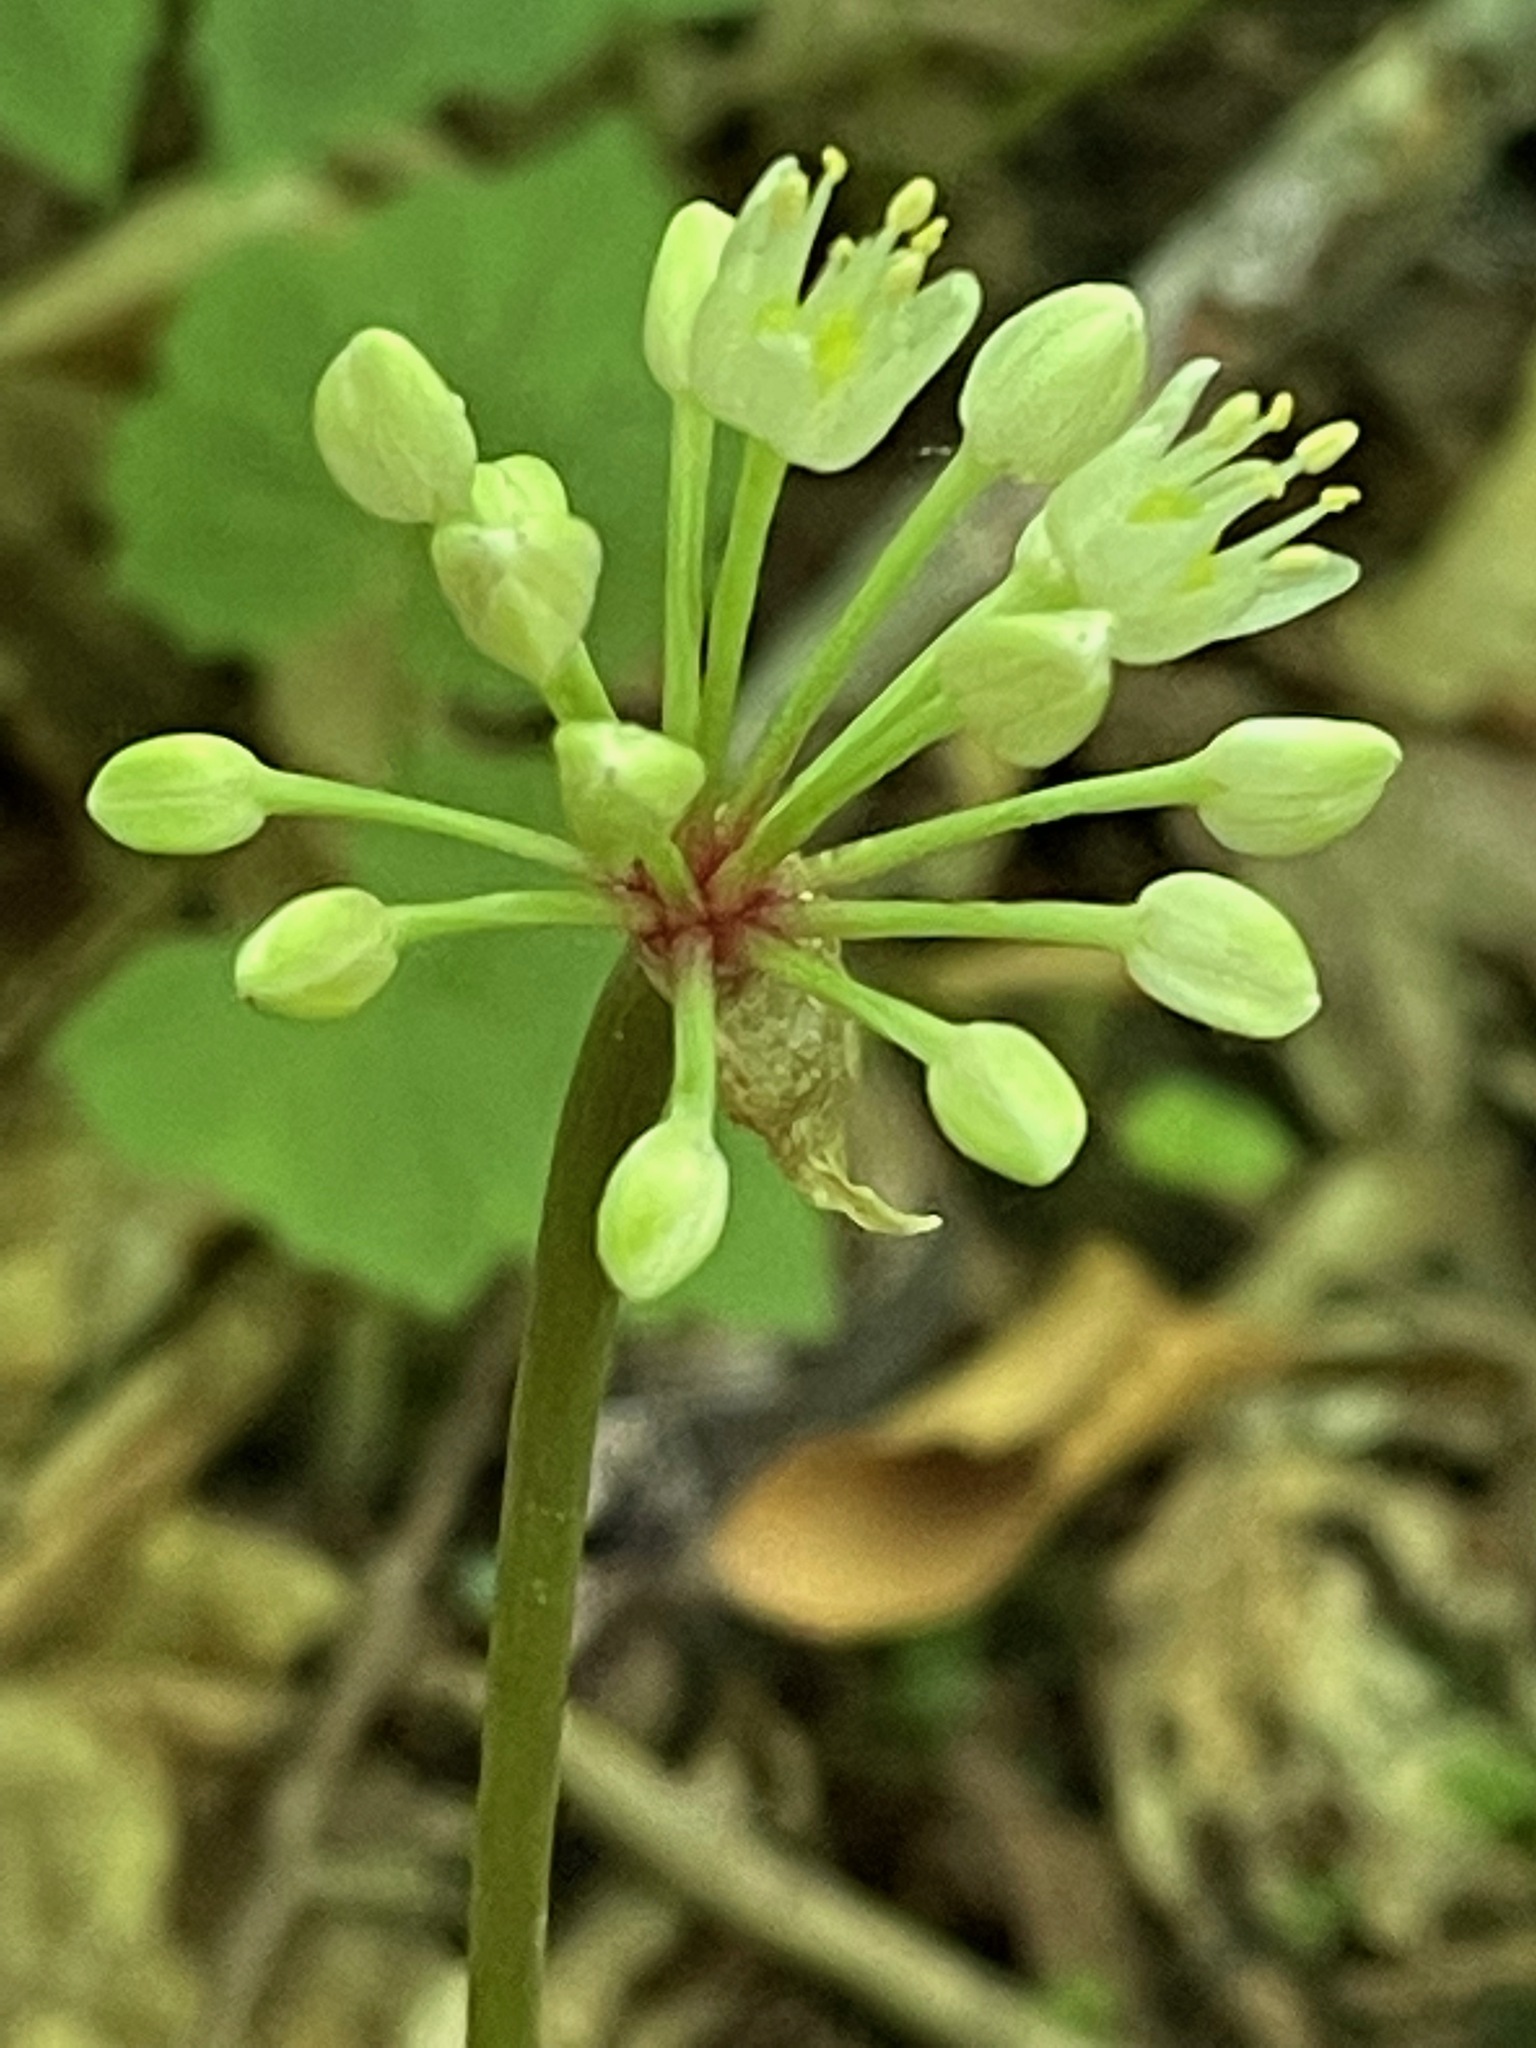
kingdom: Plantae
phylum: Tracheophyta
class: Liliopsida
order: Asparagales
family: Amaryllidaceae
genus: Allium
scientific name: Allium tricoccum
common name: Ramp
